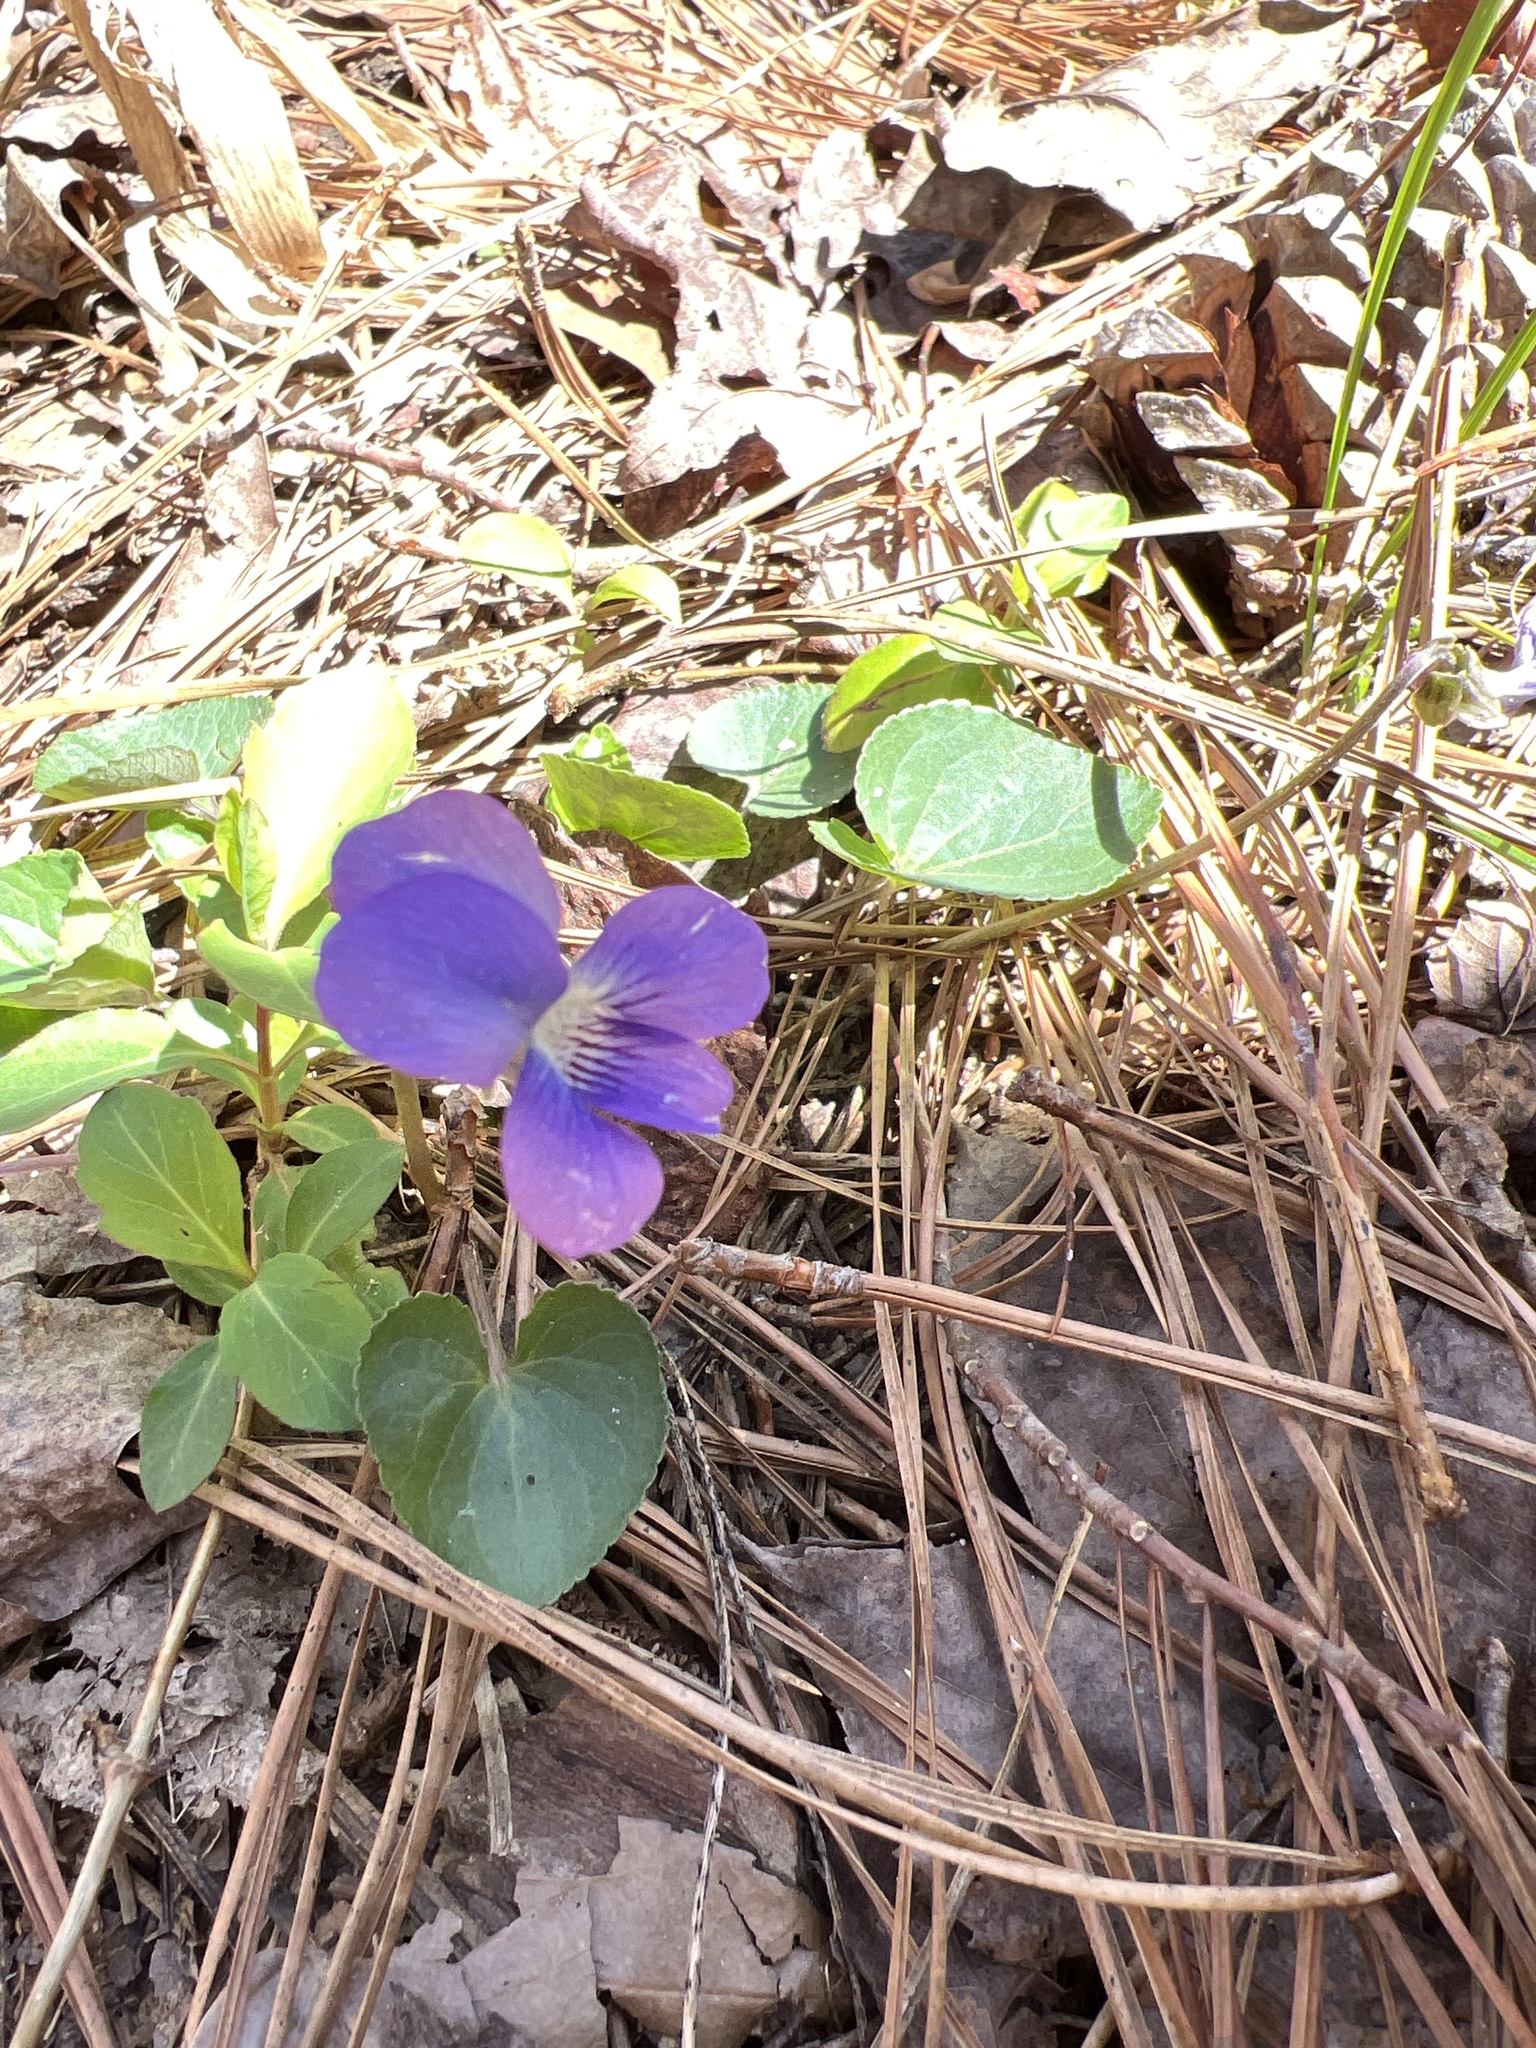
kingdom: Plantae
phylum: Tracheophyta
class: Magnoliopsida
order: Malpighiales
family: Violaceae
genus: Viola
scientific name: Viola sororia
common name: Dooryard violet
